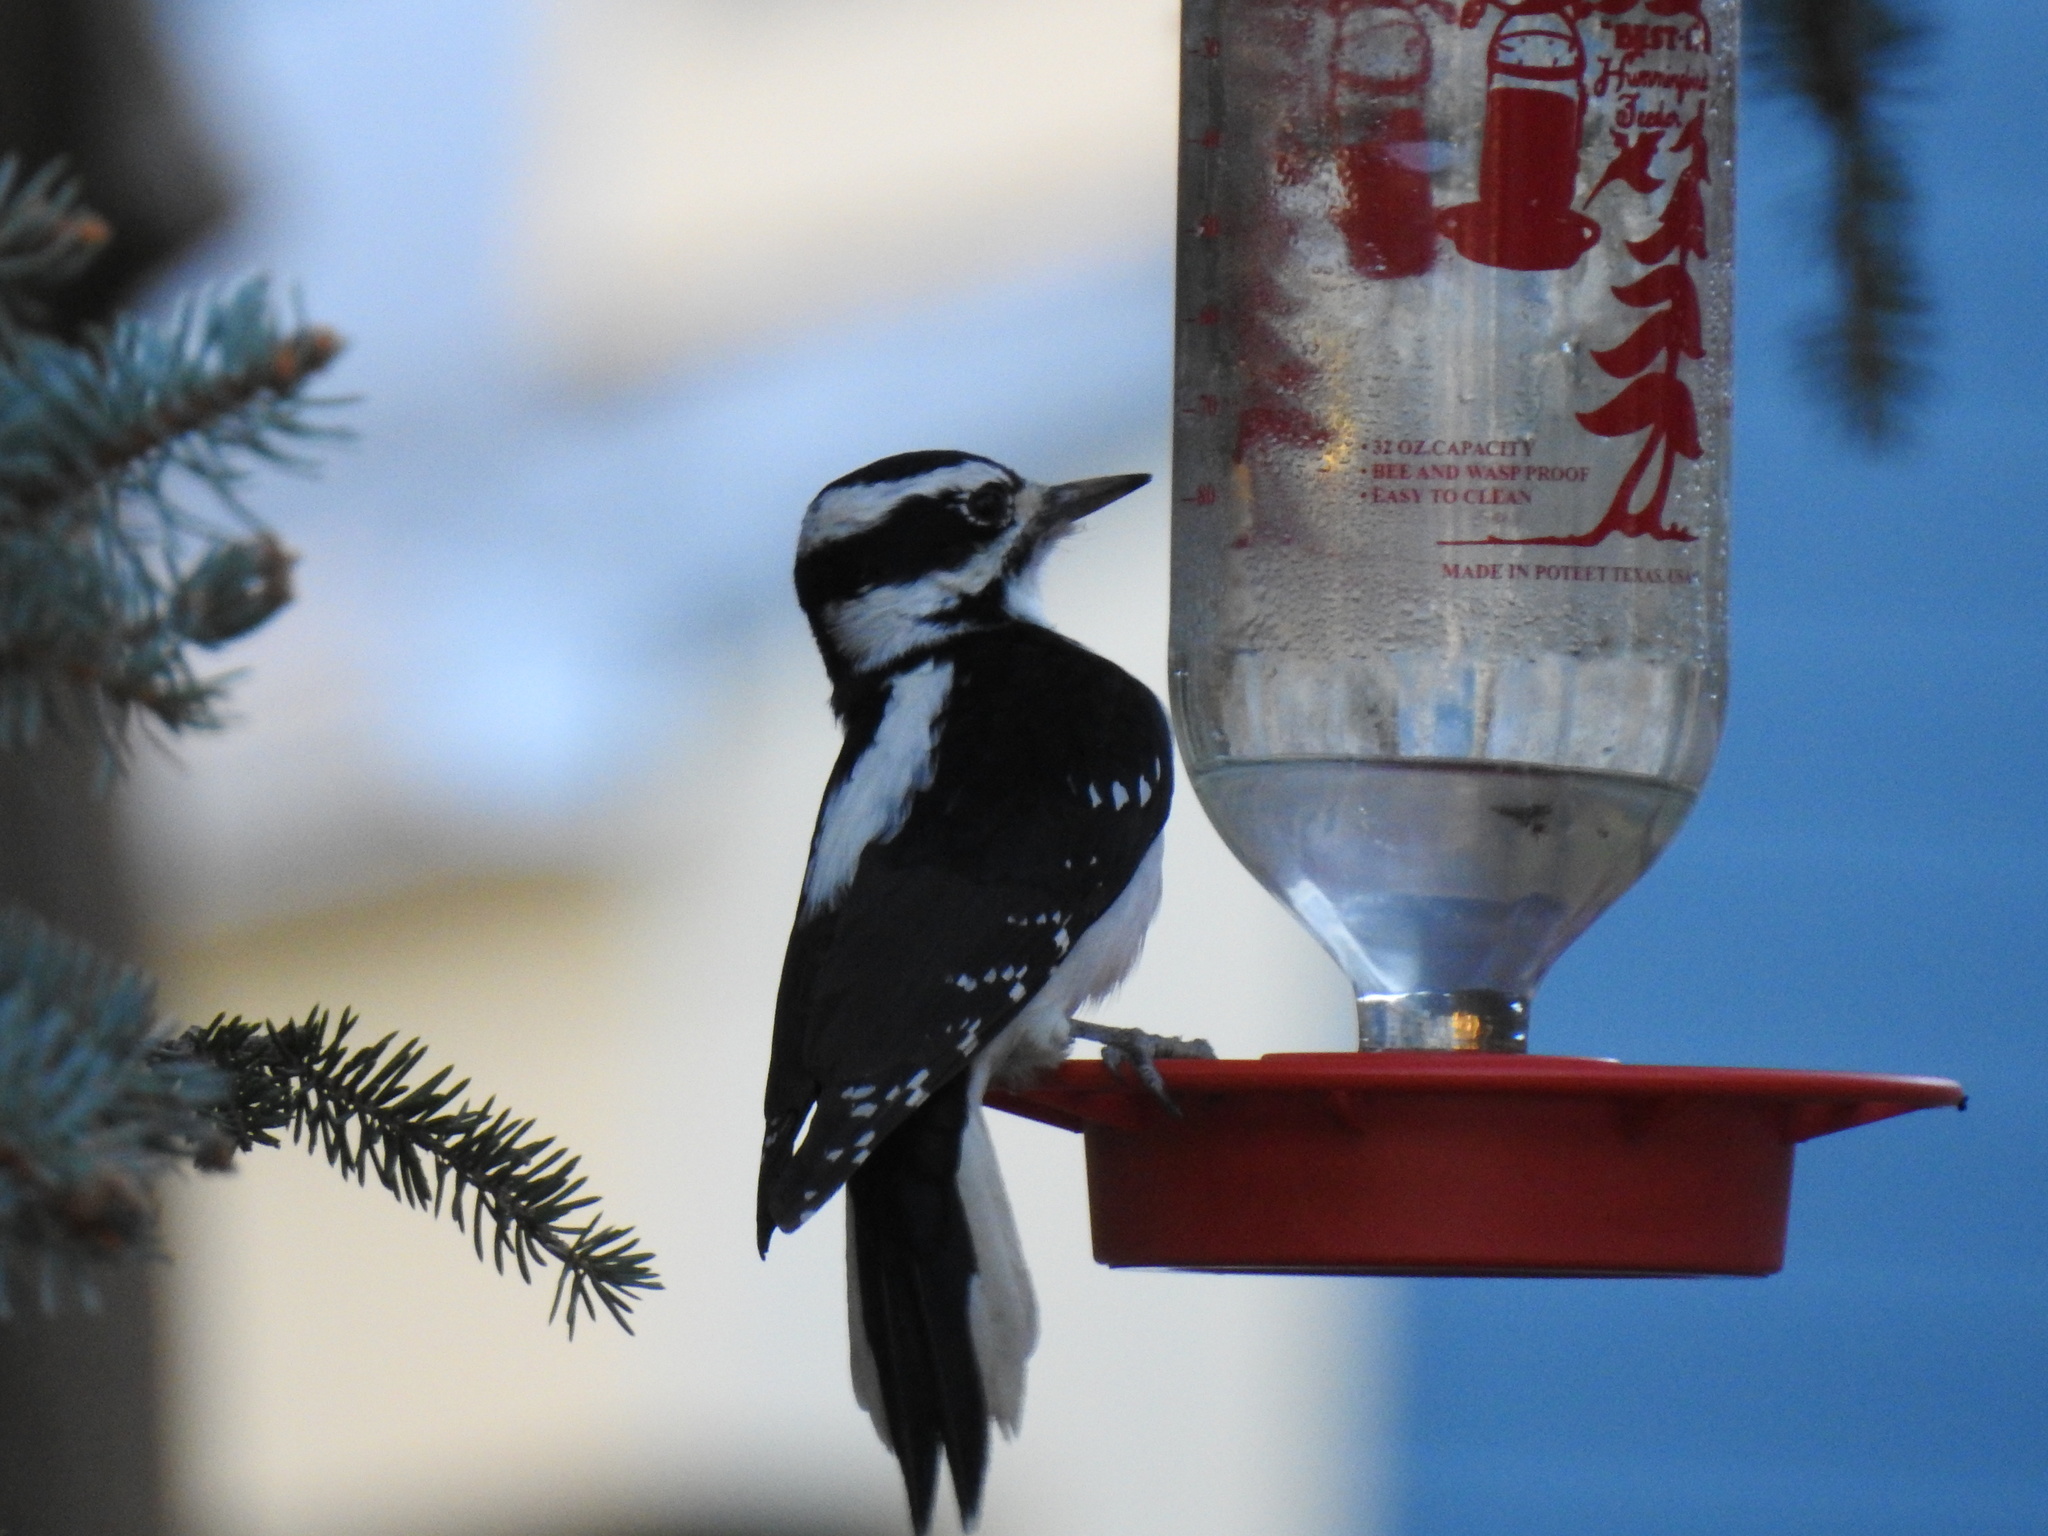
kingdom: Animalia
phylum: Chordata
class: Aves
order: Piciformes
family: Picidae
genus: Leuconotopicus
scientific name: Leuconotopicus villosus
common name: Hairy woodpecker
